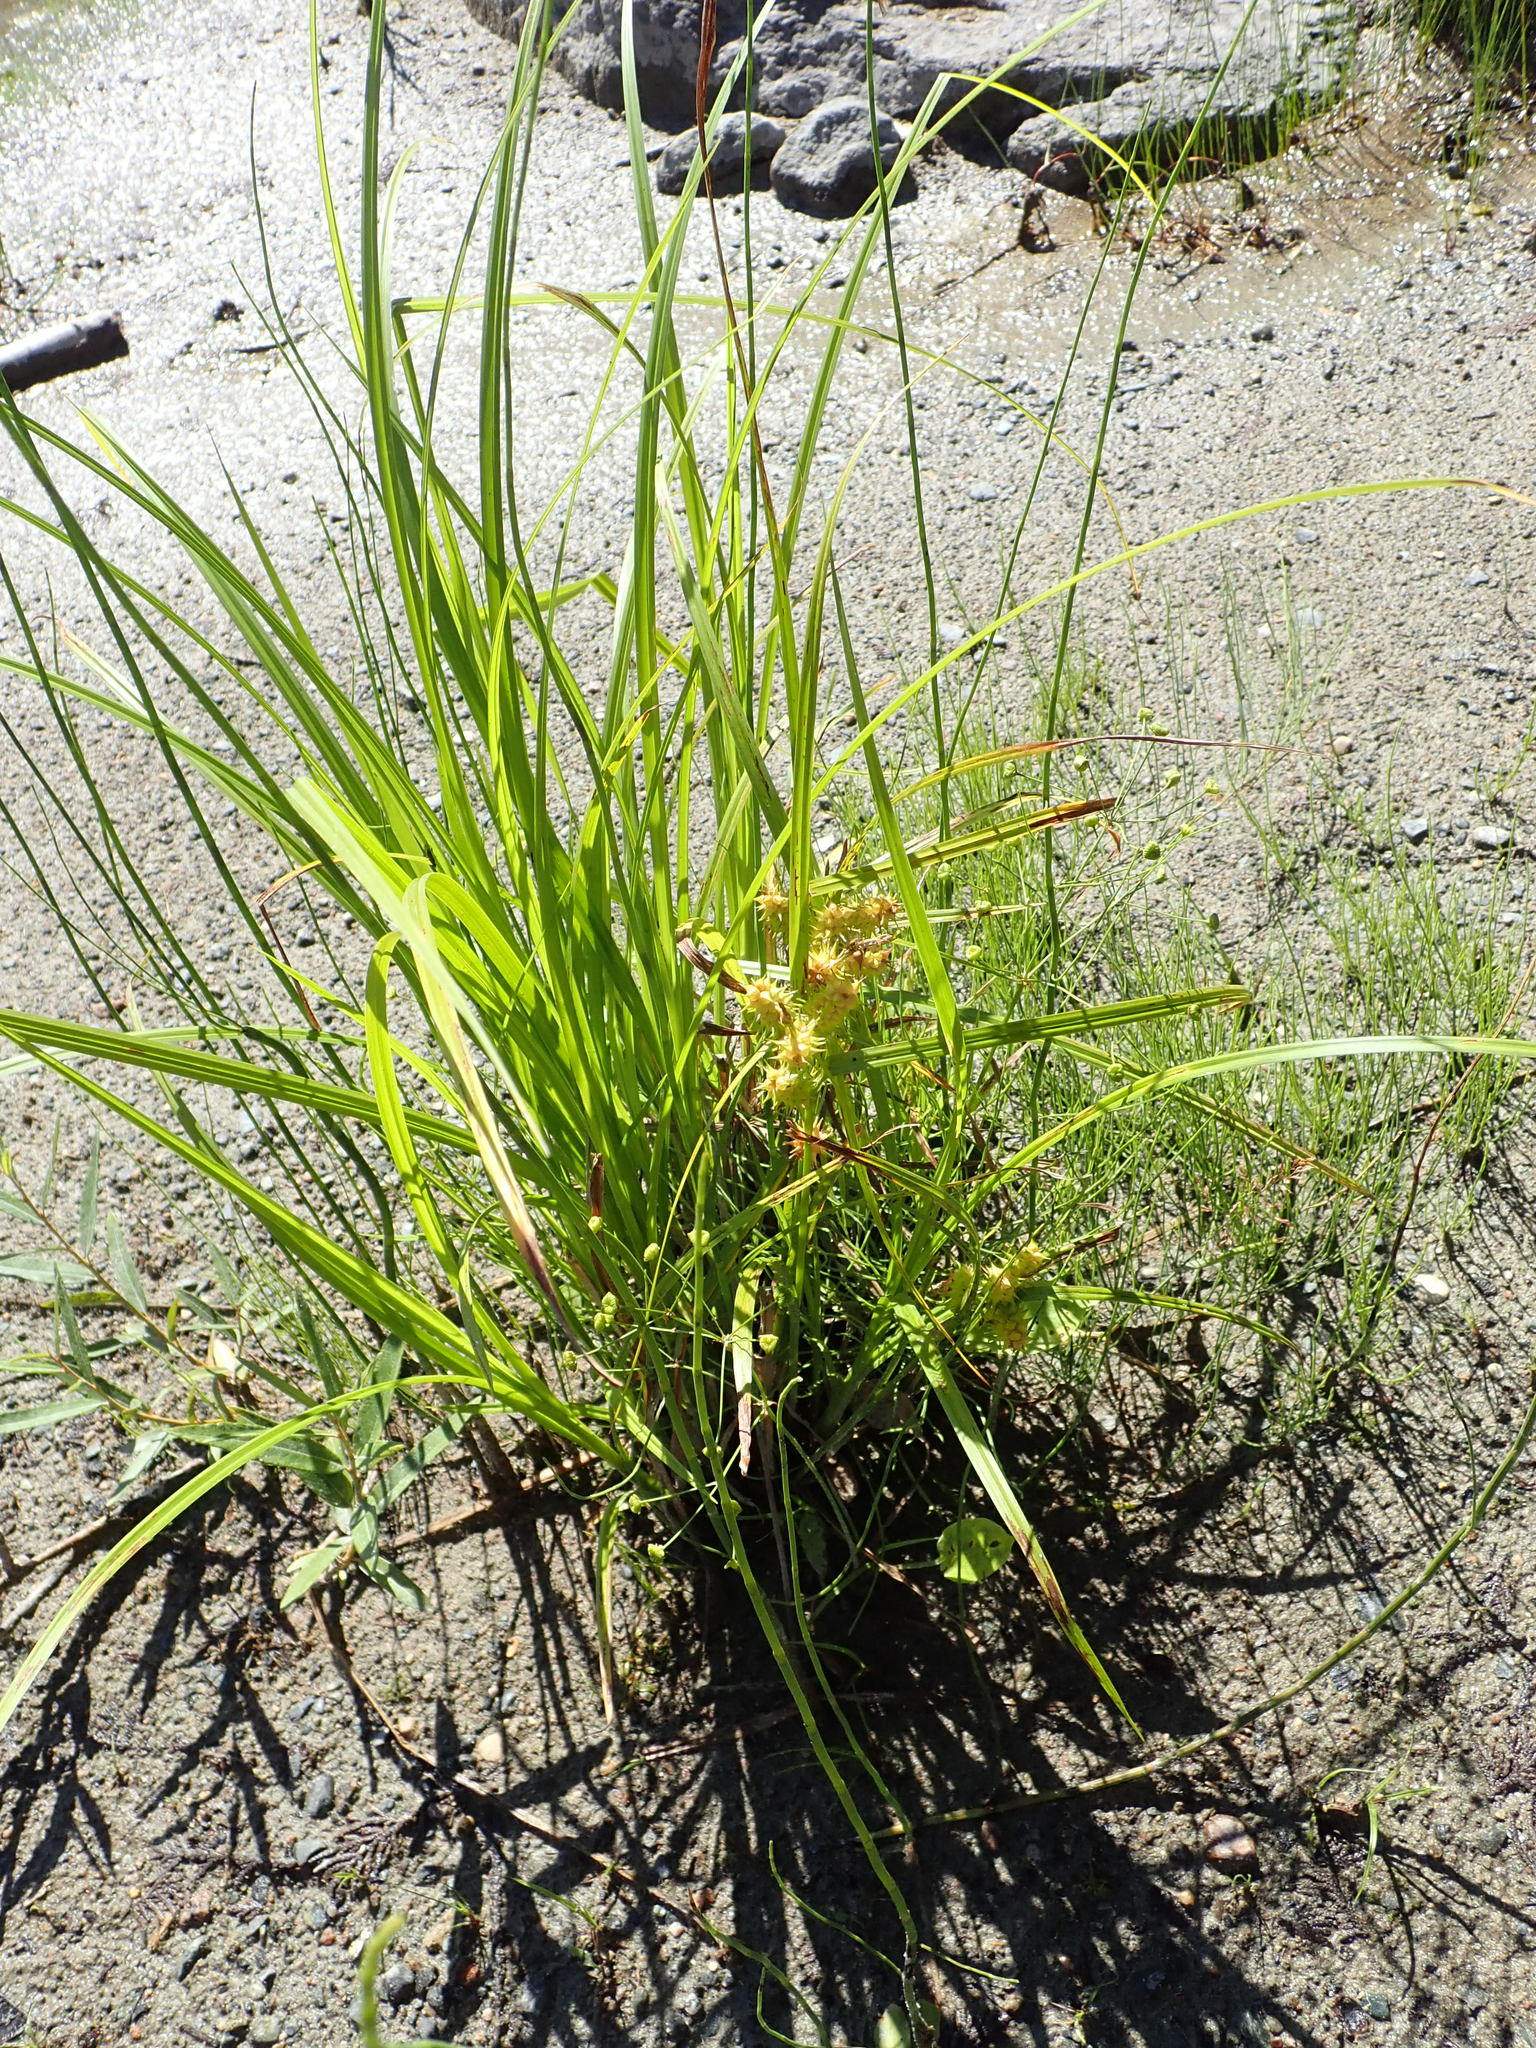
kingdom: Plantae
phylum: Tracheophyta
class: Liliopsida
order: Poales
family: Cyperaceae
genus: Carex
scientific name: Carex retrorsa
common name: Knot-sheath sedge
